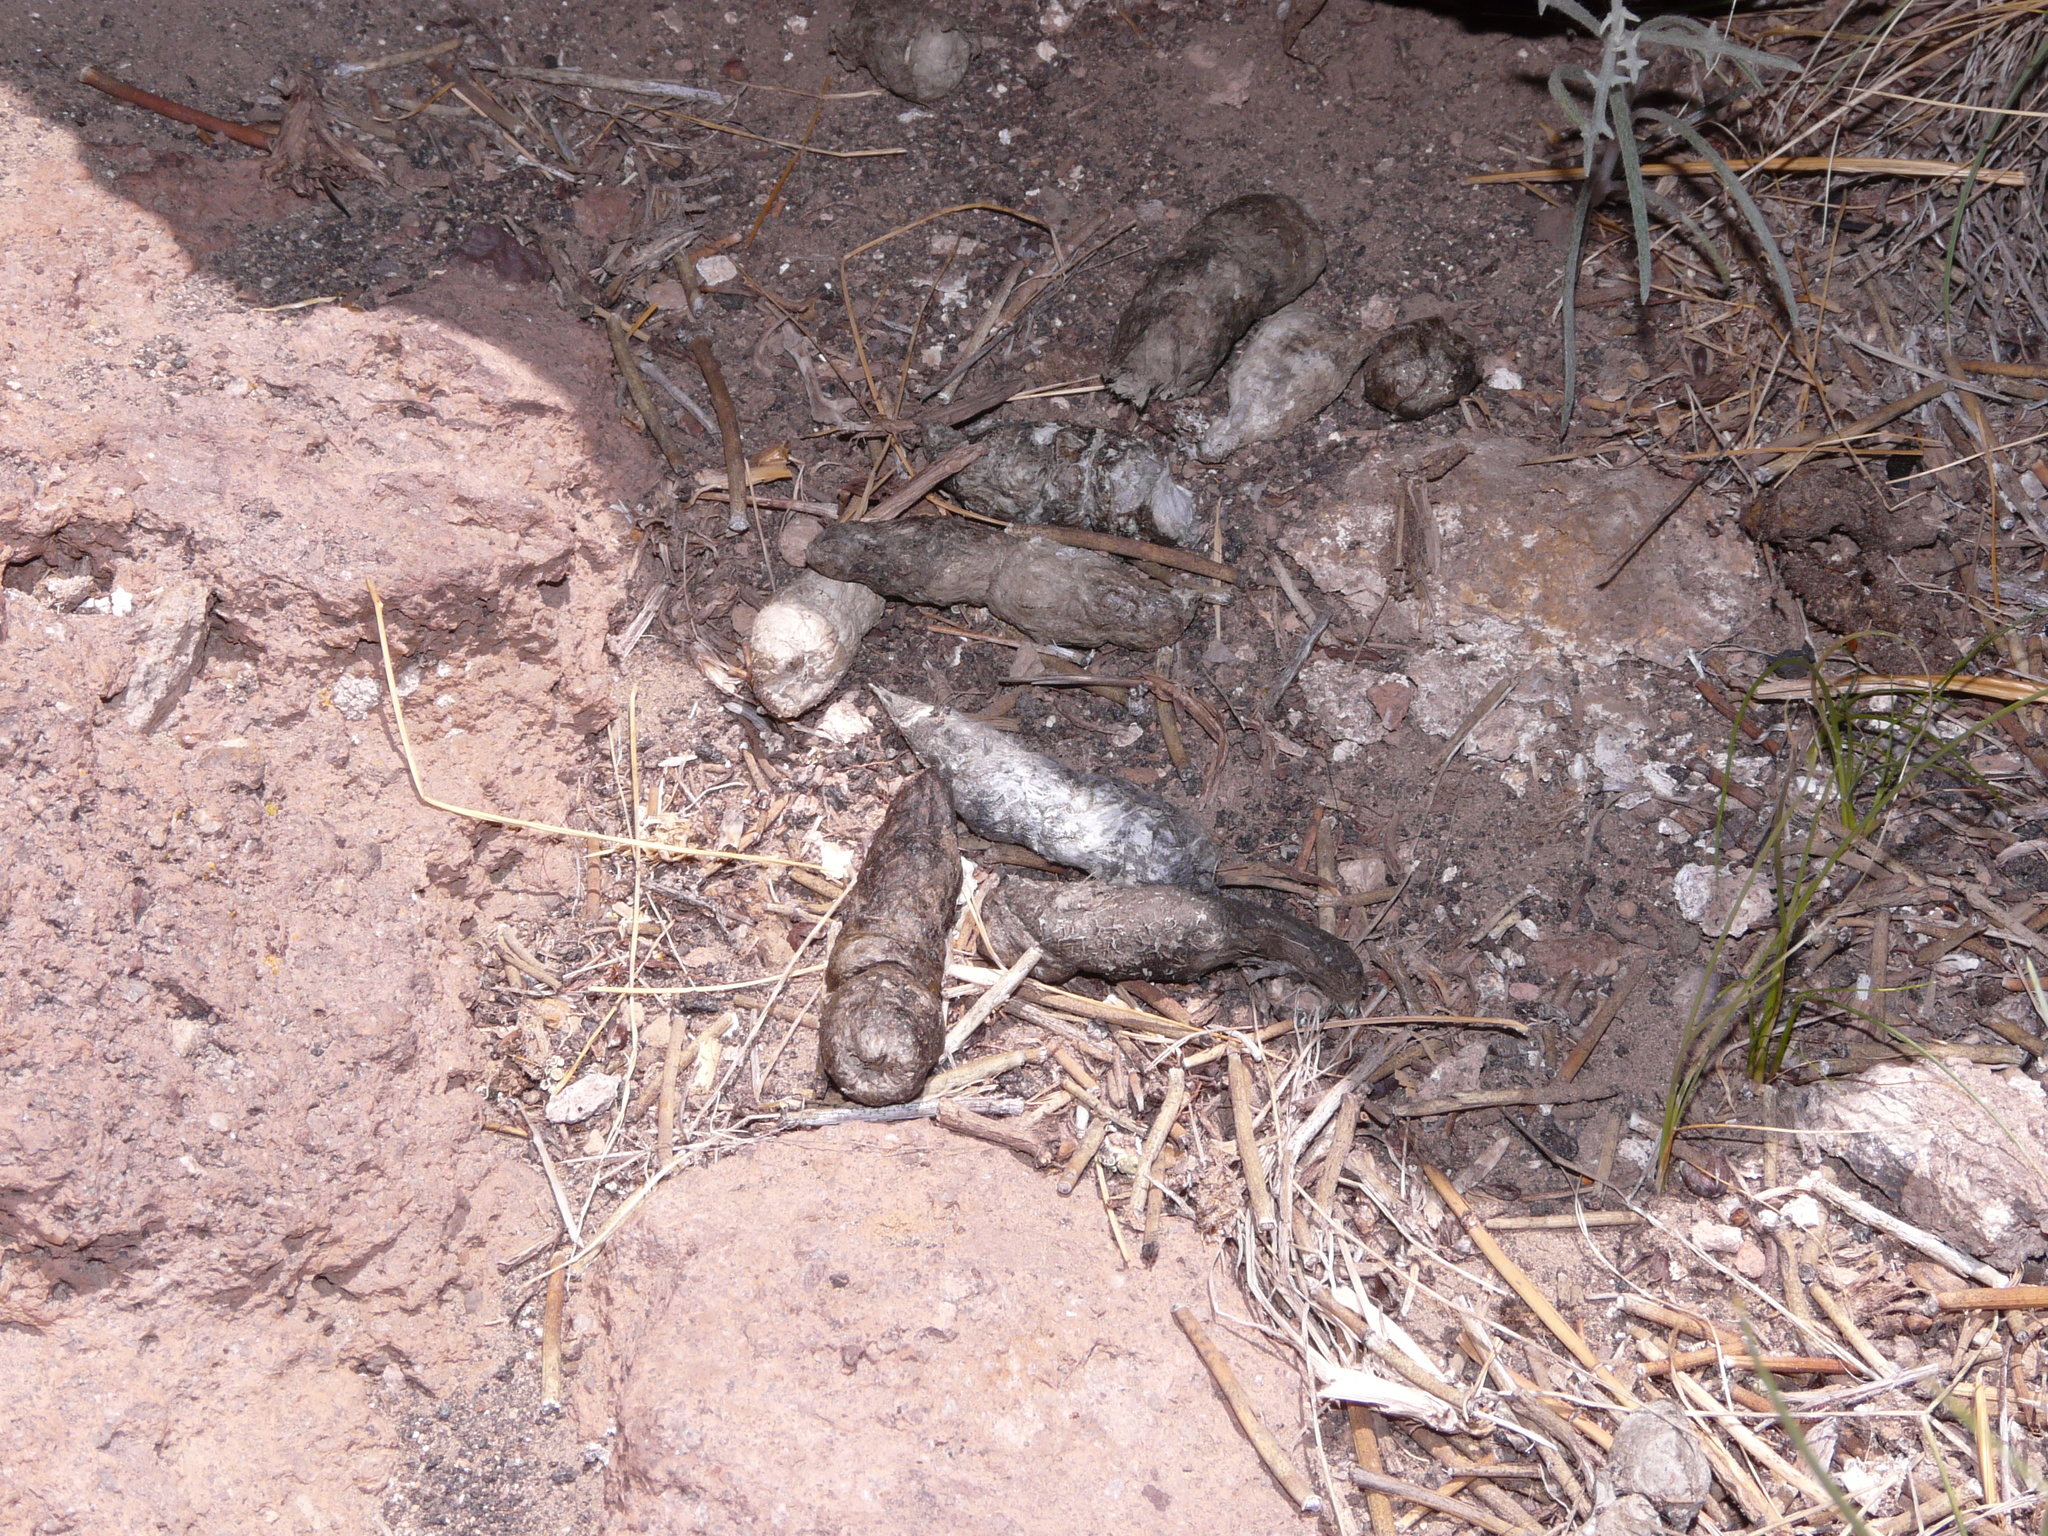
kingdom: Animalia
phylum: Chordata
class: Mammalia
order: Carnivora
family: Felidae
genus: Puma
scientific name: Puma concolor
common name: Puma
